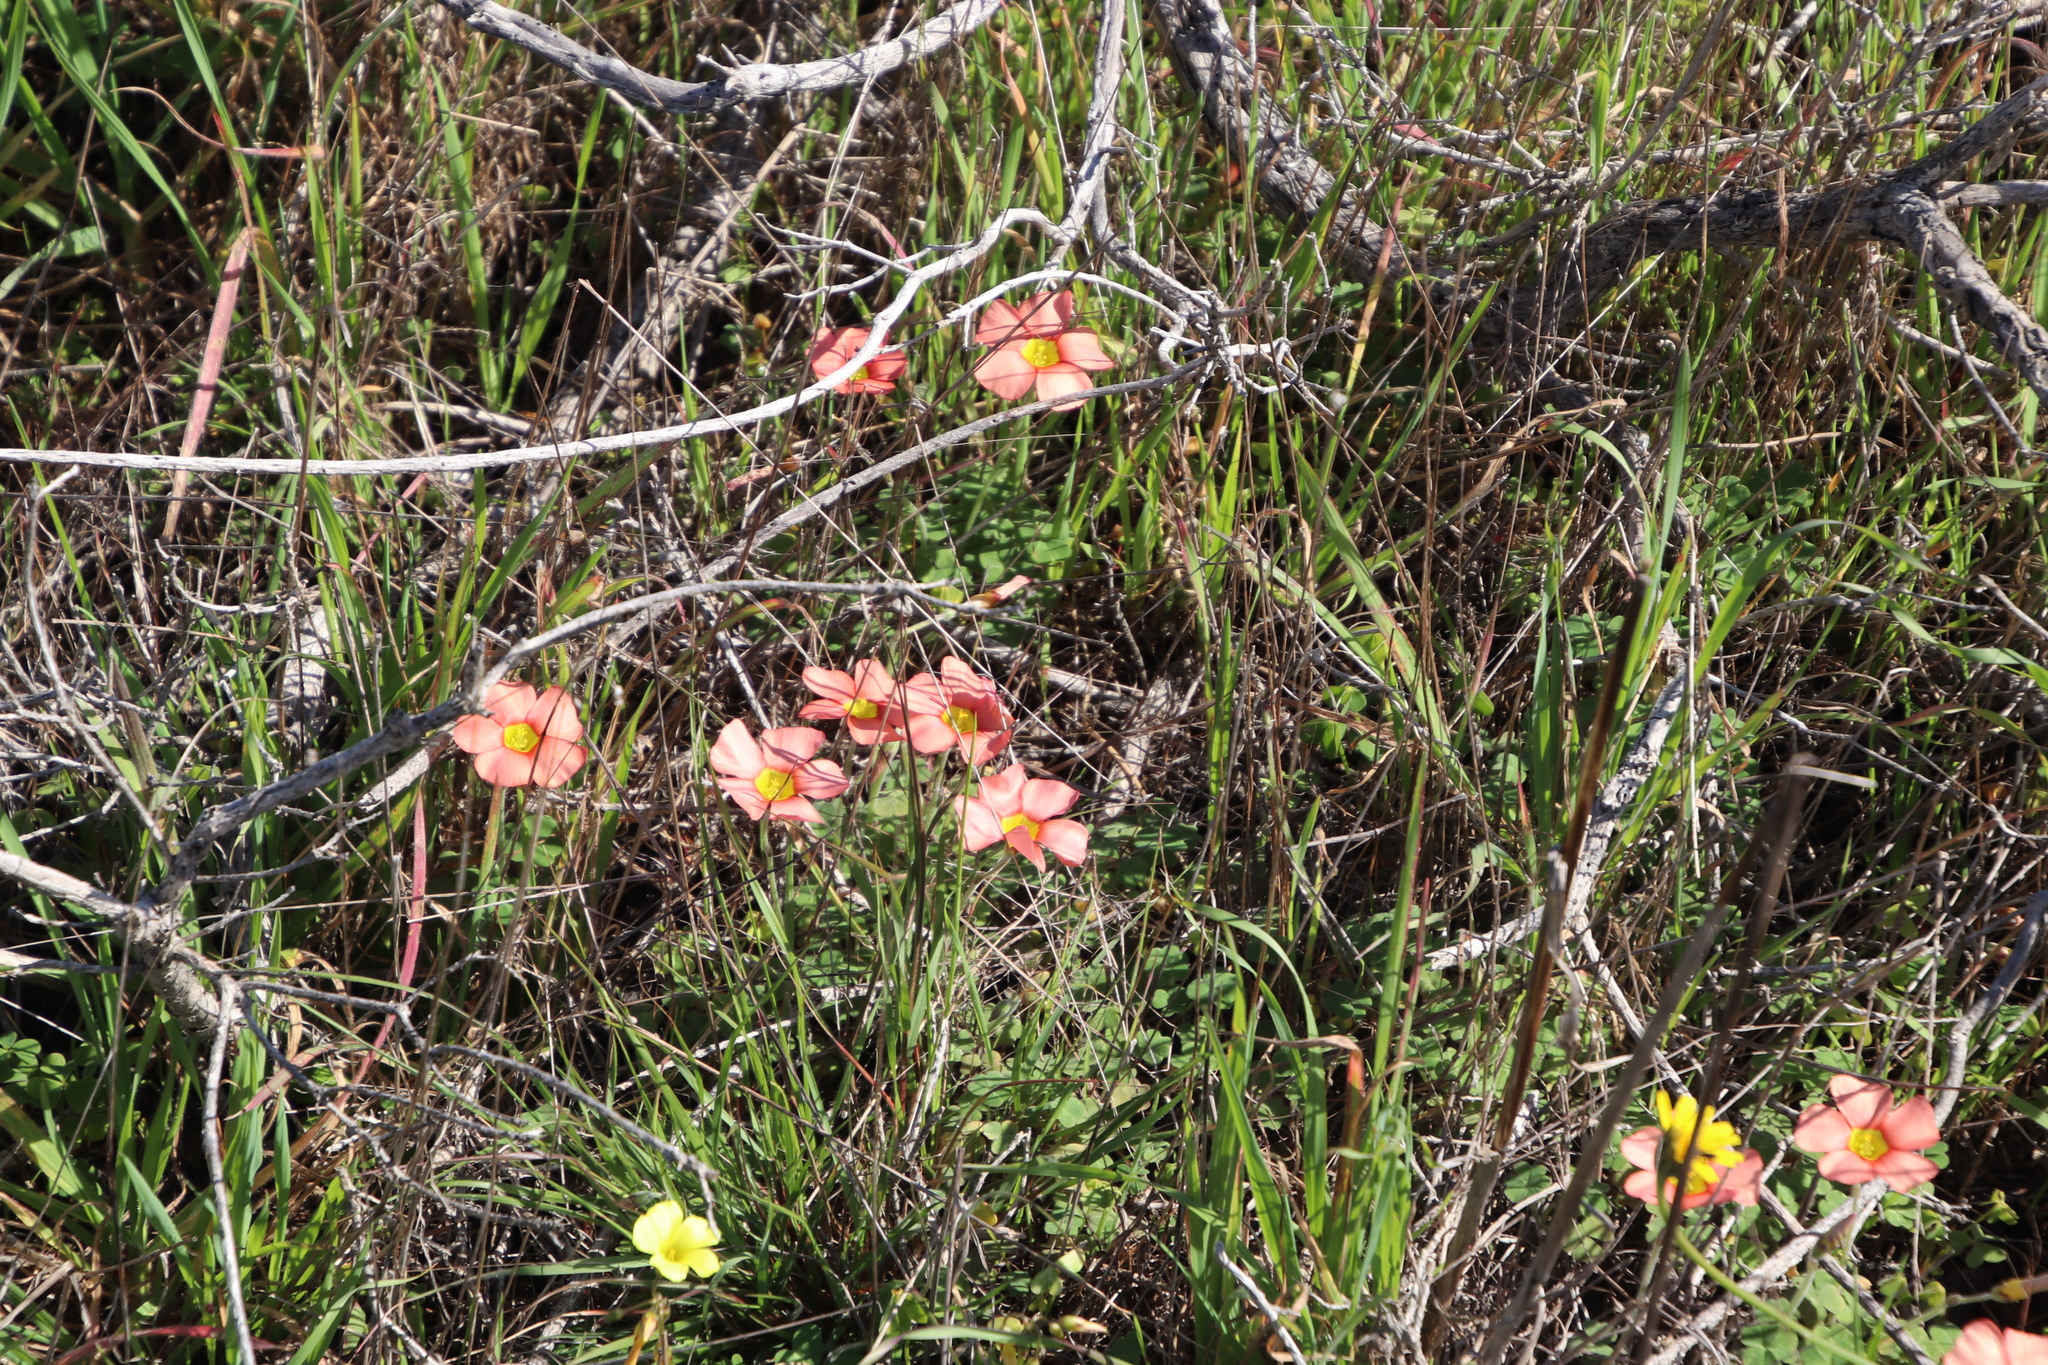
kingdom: Plantae
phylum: Tracheophyta
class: Magnoliopsida
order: Oxalidales
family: Oxalidaceae
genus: Oxalis
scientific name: Oxalis obtusa
